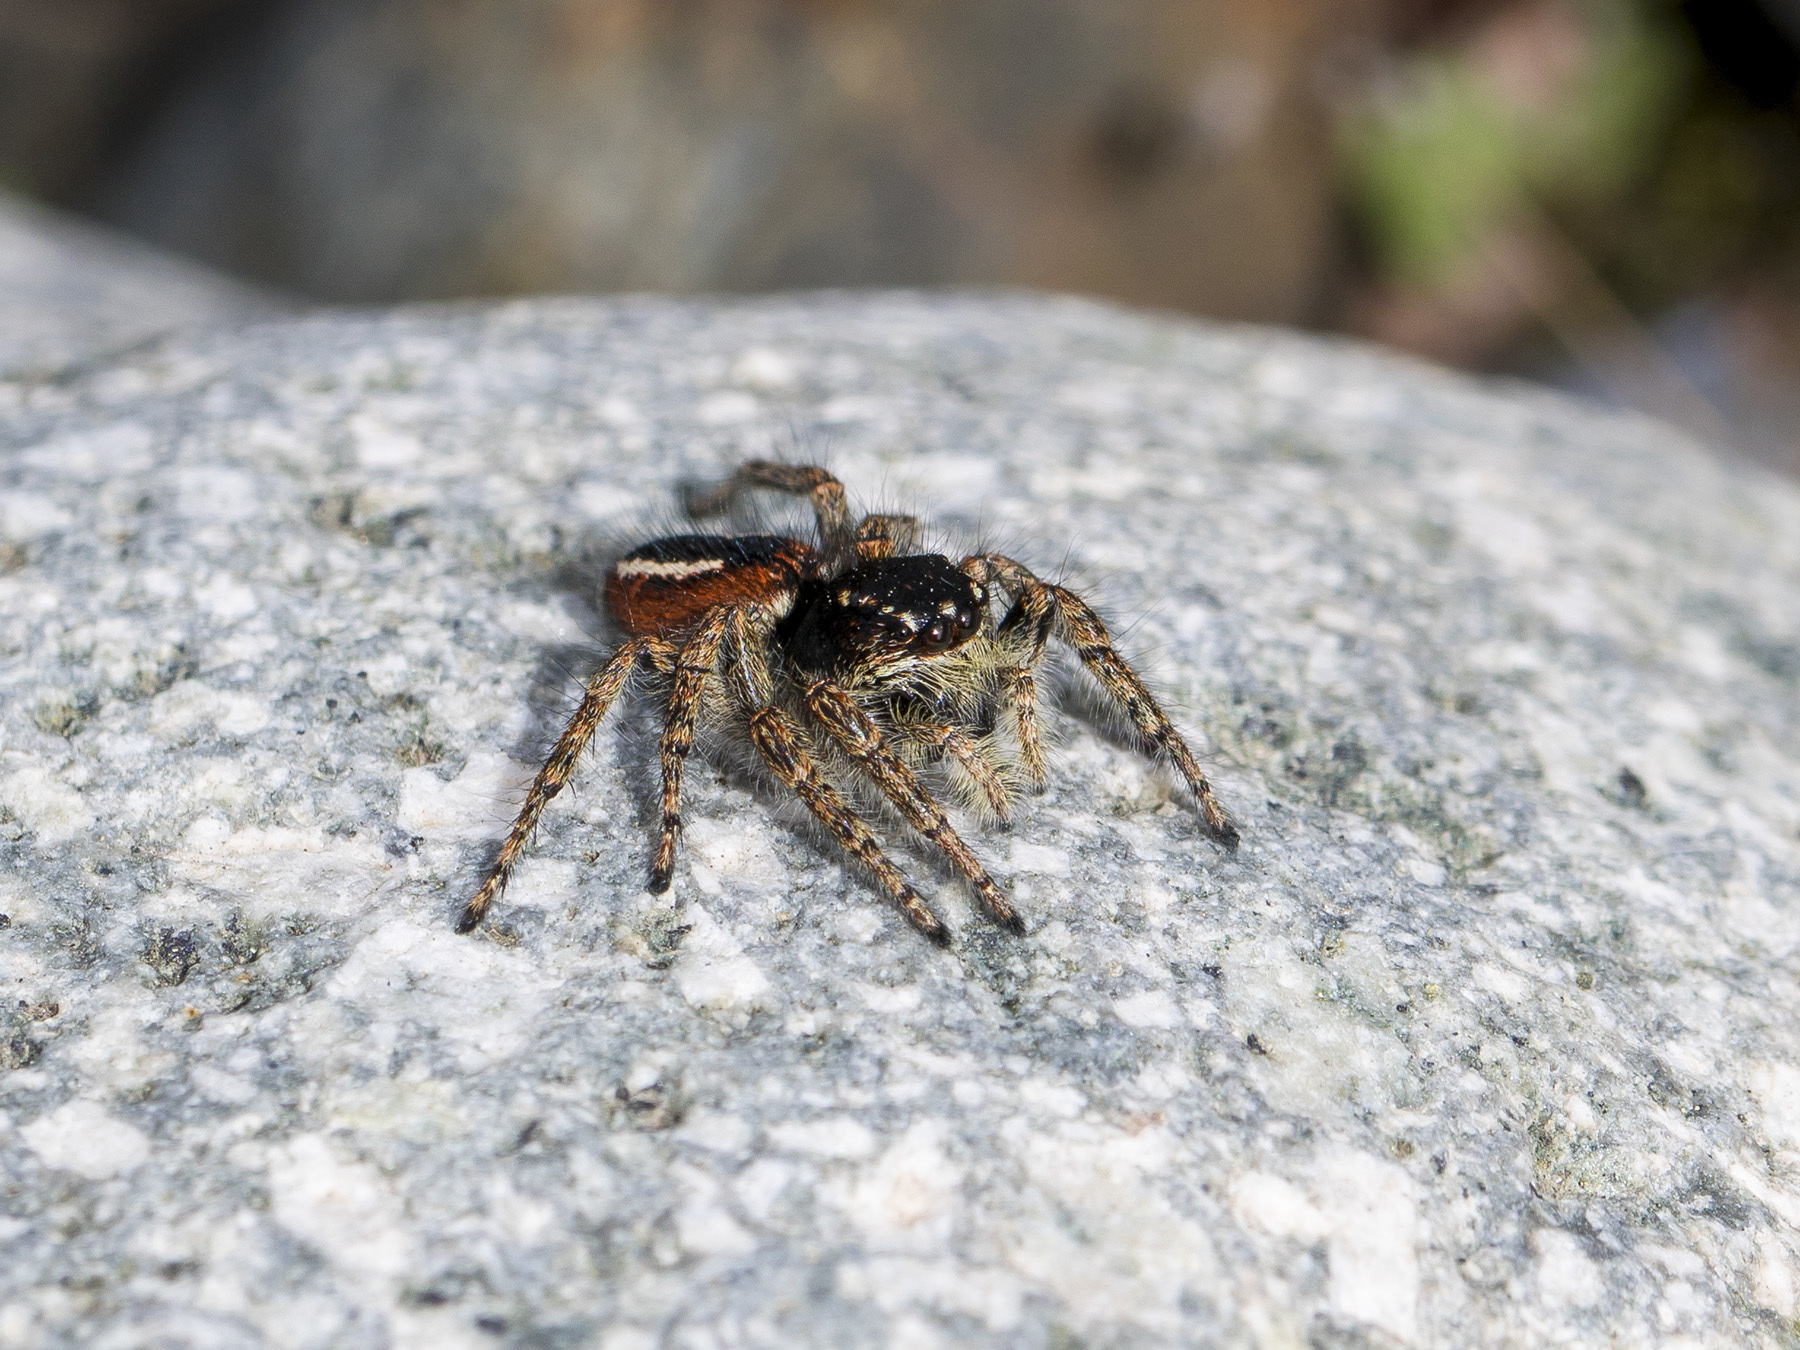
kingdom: Animalia
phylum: Arthropoda
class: Arachnida
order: Araneae
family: Salticidae
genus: Philaeus
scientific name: Philaeus chrysops
